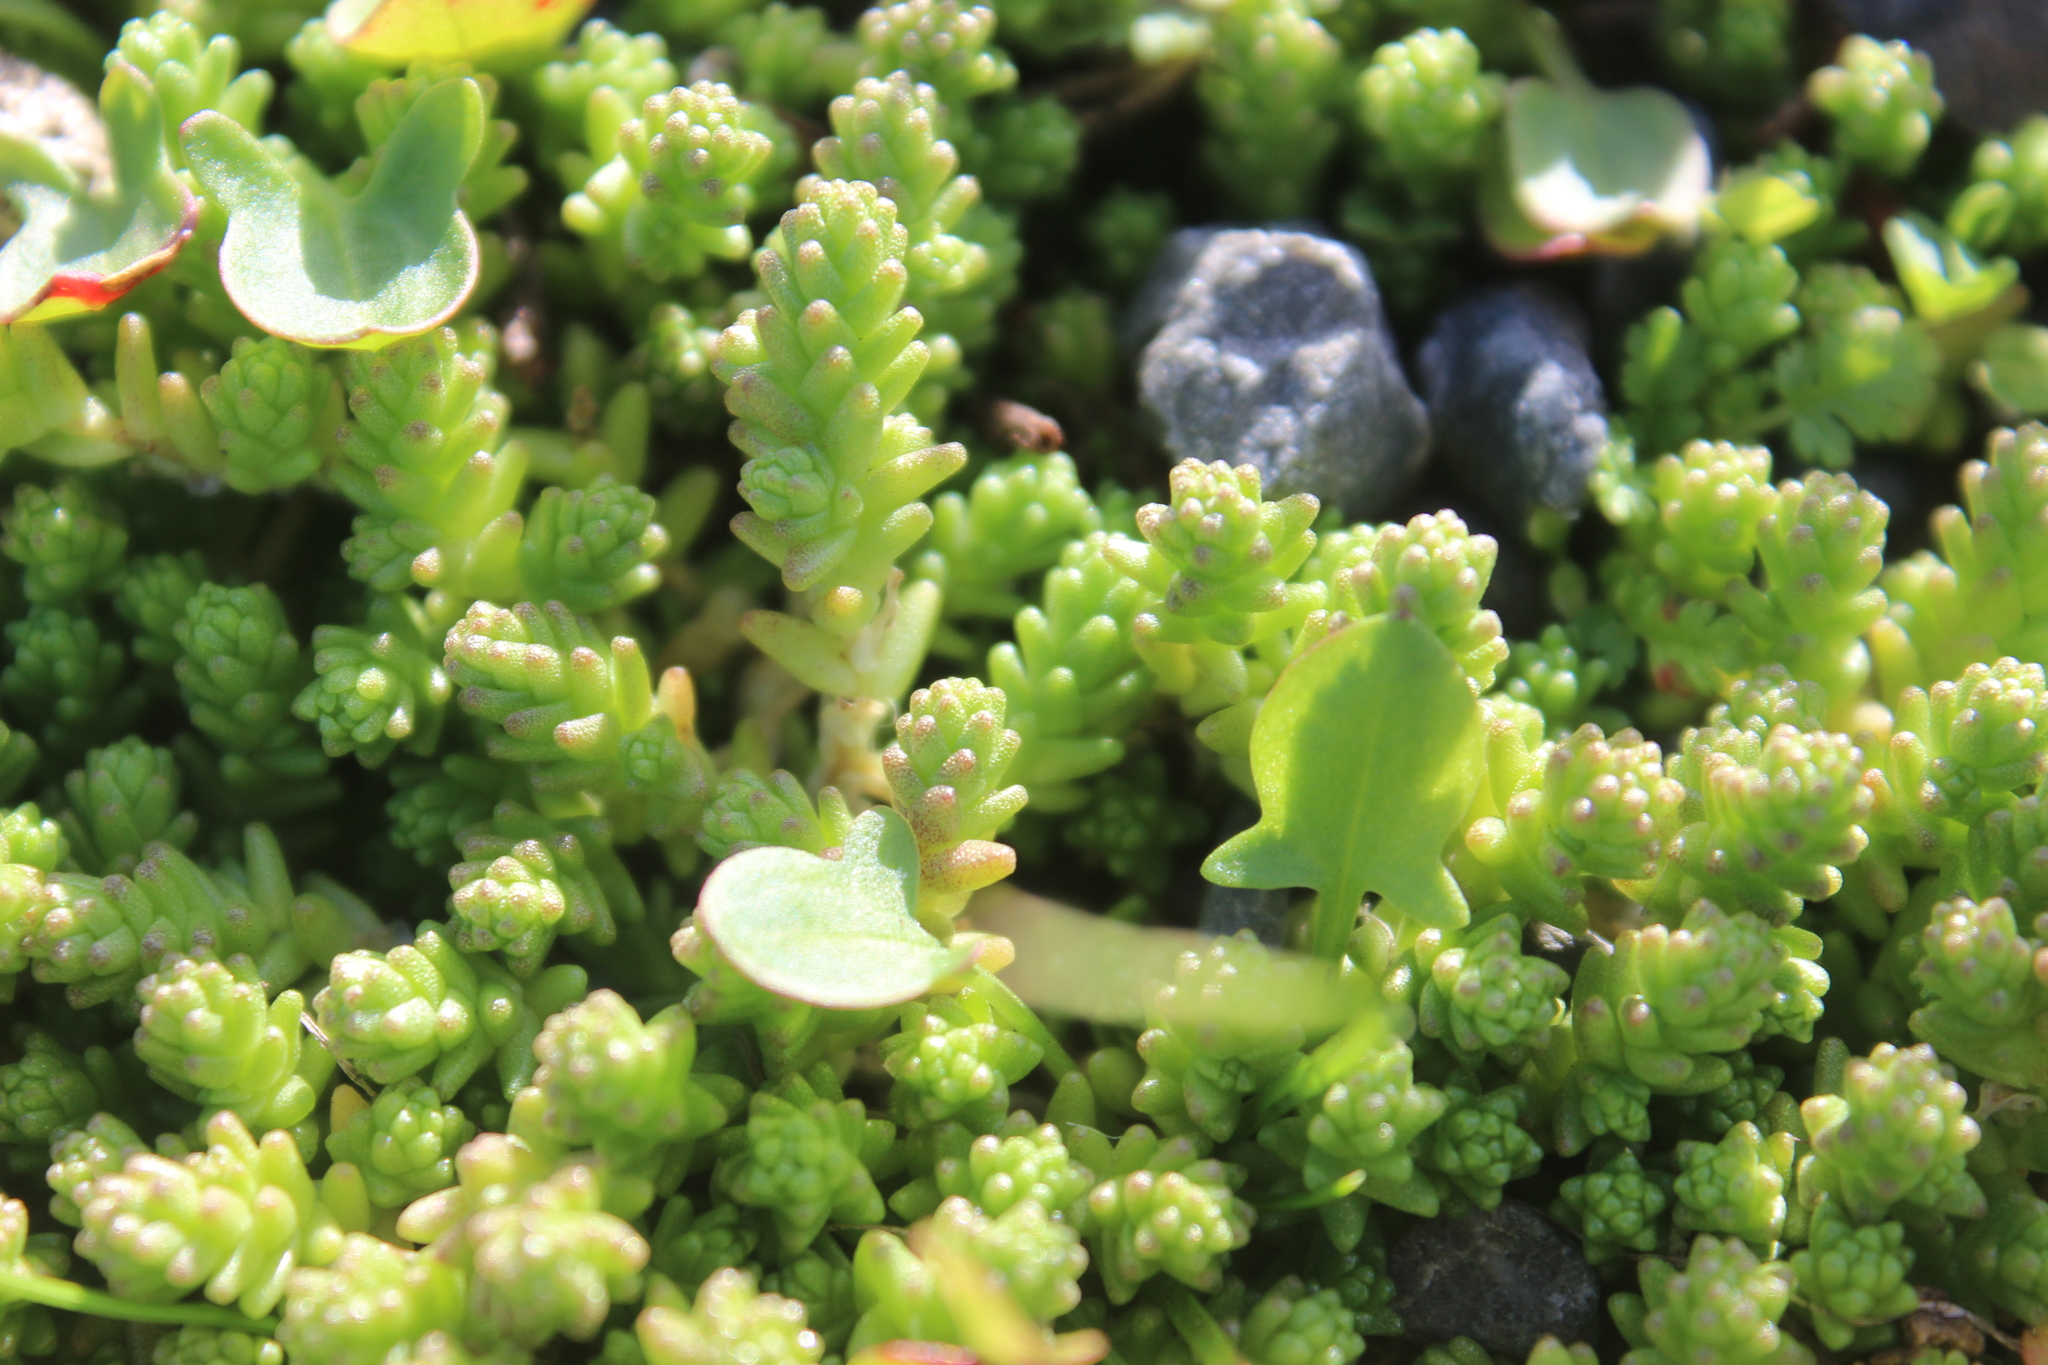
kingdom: Plantae
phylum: Tracheophyta
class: Magnoliopsida
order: Saxifragales
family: Crassulaceae
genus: Sedum
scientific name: Sedum acre
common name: Biting stonecrop
